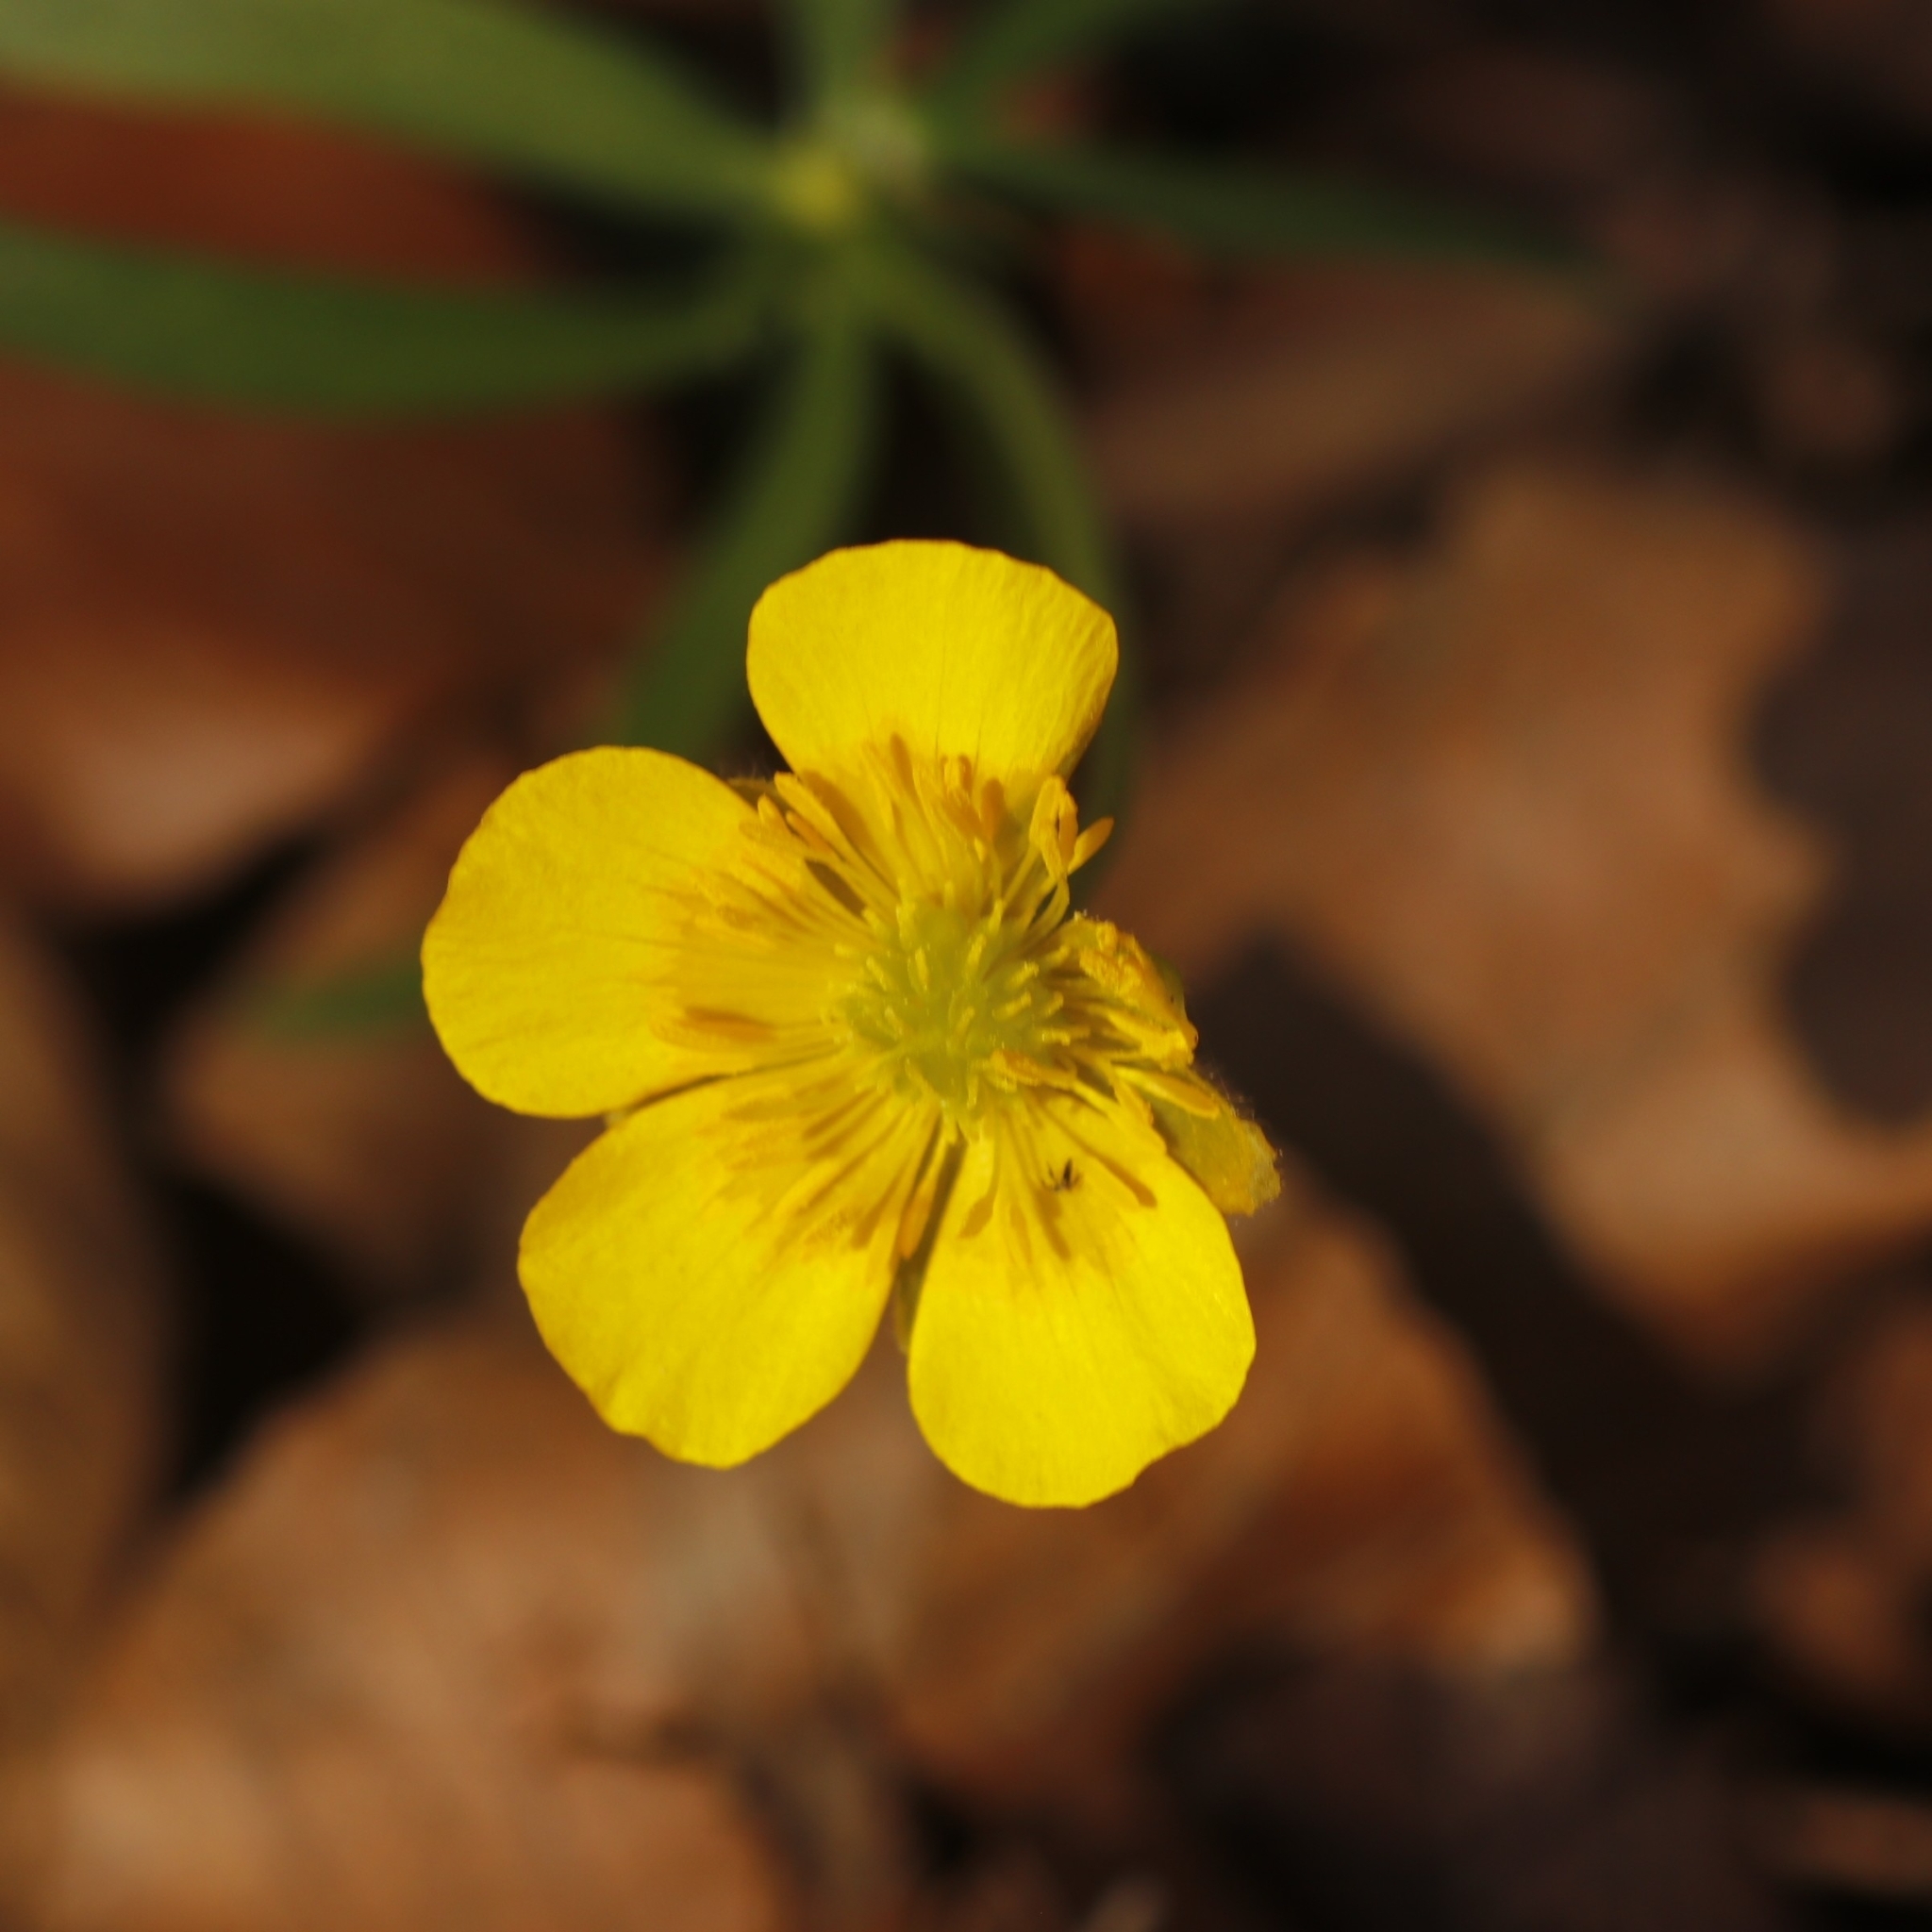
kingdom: Plantae
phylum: Tracheophyta
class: Magnoliopsida
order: Ranunculales
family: Ranunculaceae
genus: Ranunculus
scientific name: Ranunculus auricomus
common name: Goldilocks buttercup
